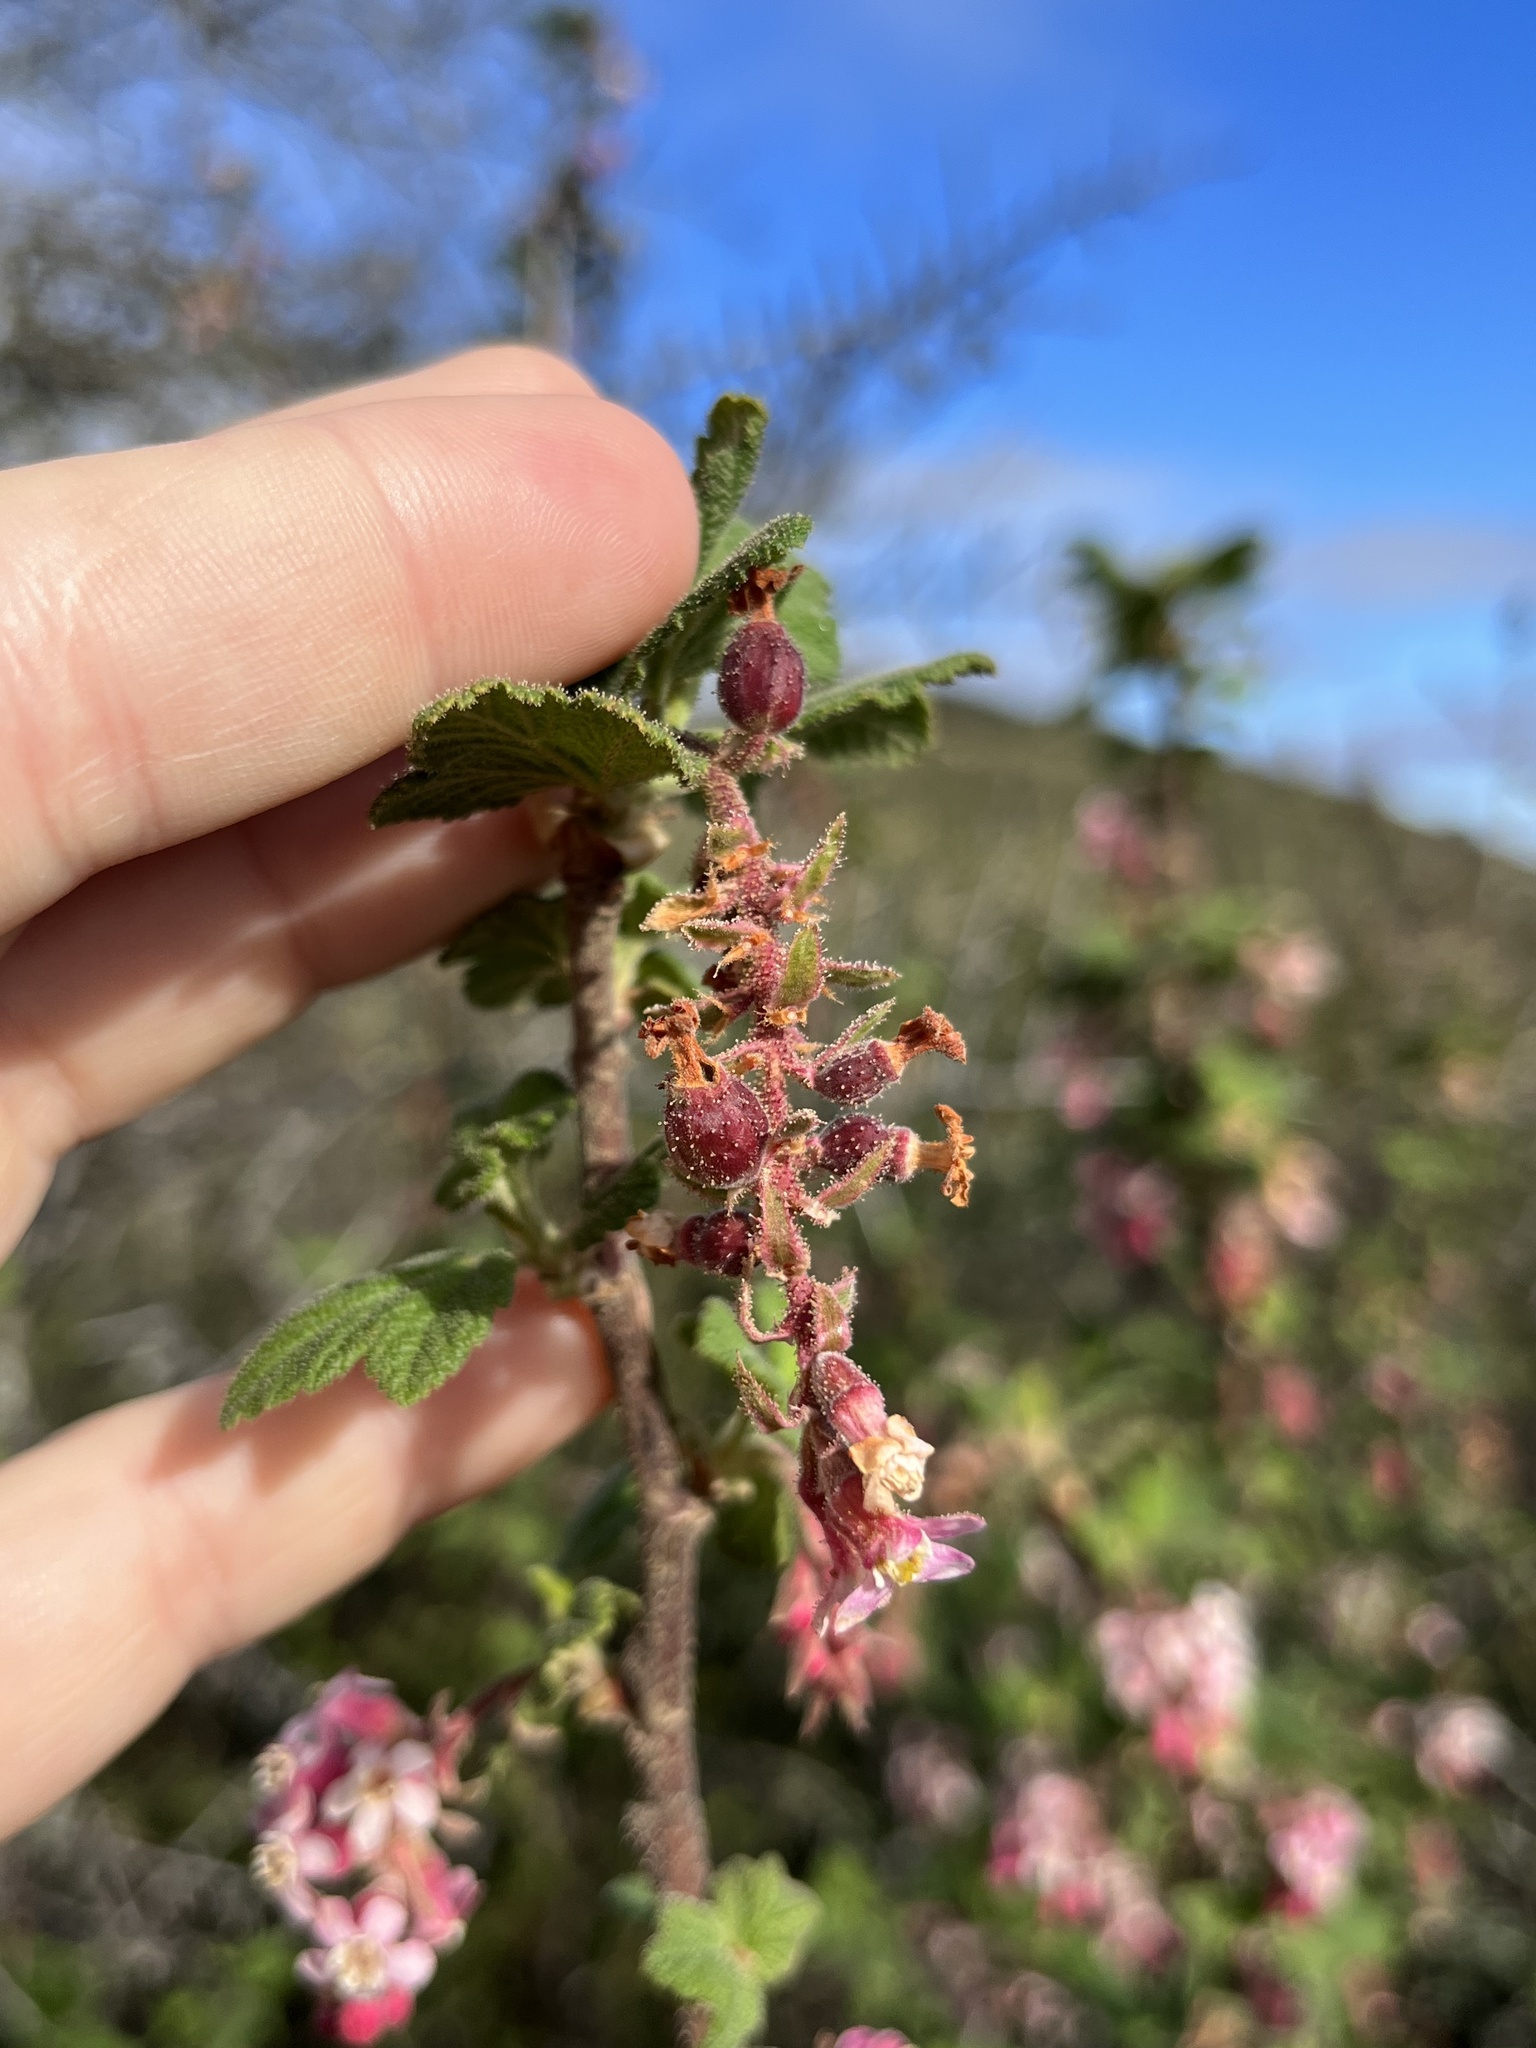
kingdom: Plantae
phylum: Tracheophyta
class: Magnoliopsida
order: Saxifragales
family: Grossulariaceae
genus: Ribes
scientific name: Ribes malvaceum
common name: Chaparral currant
